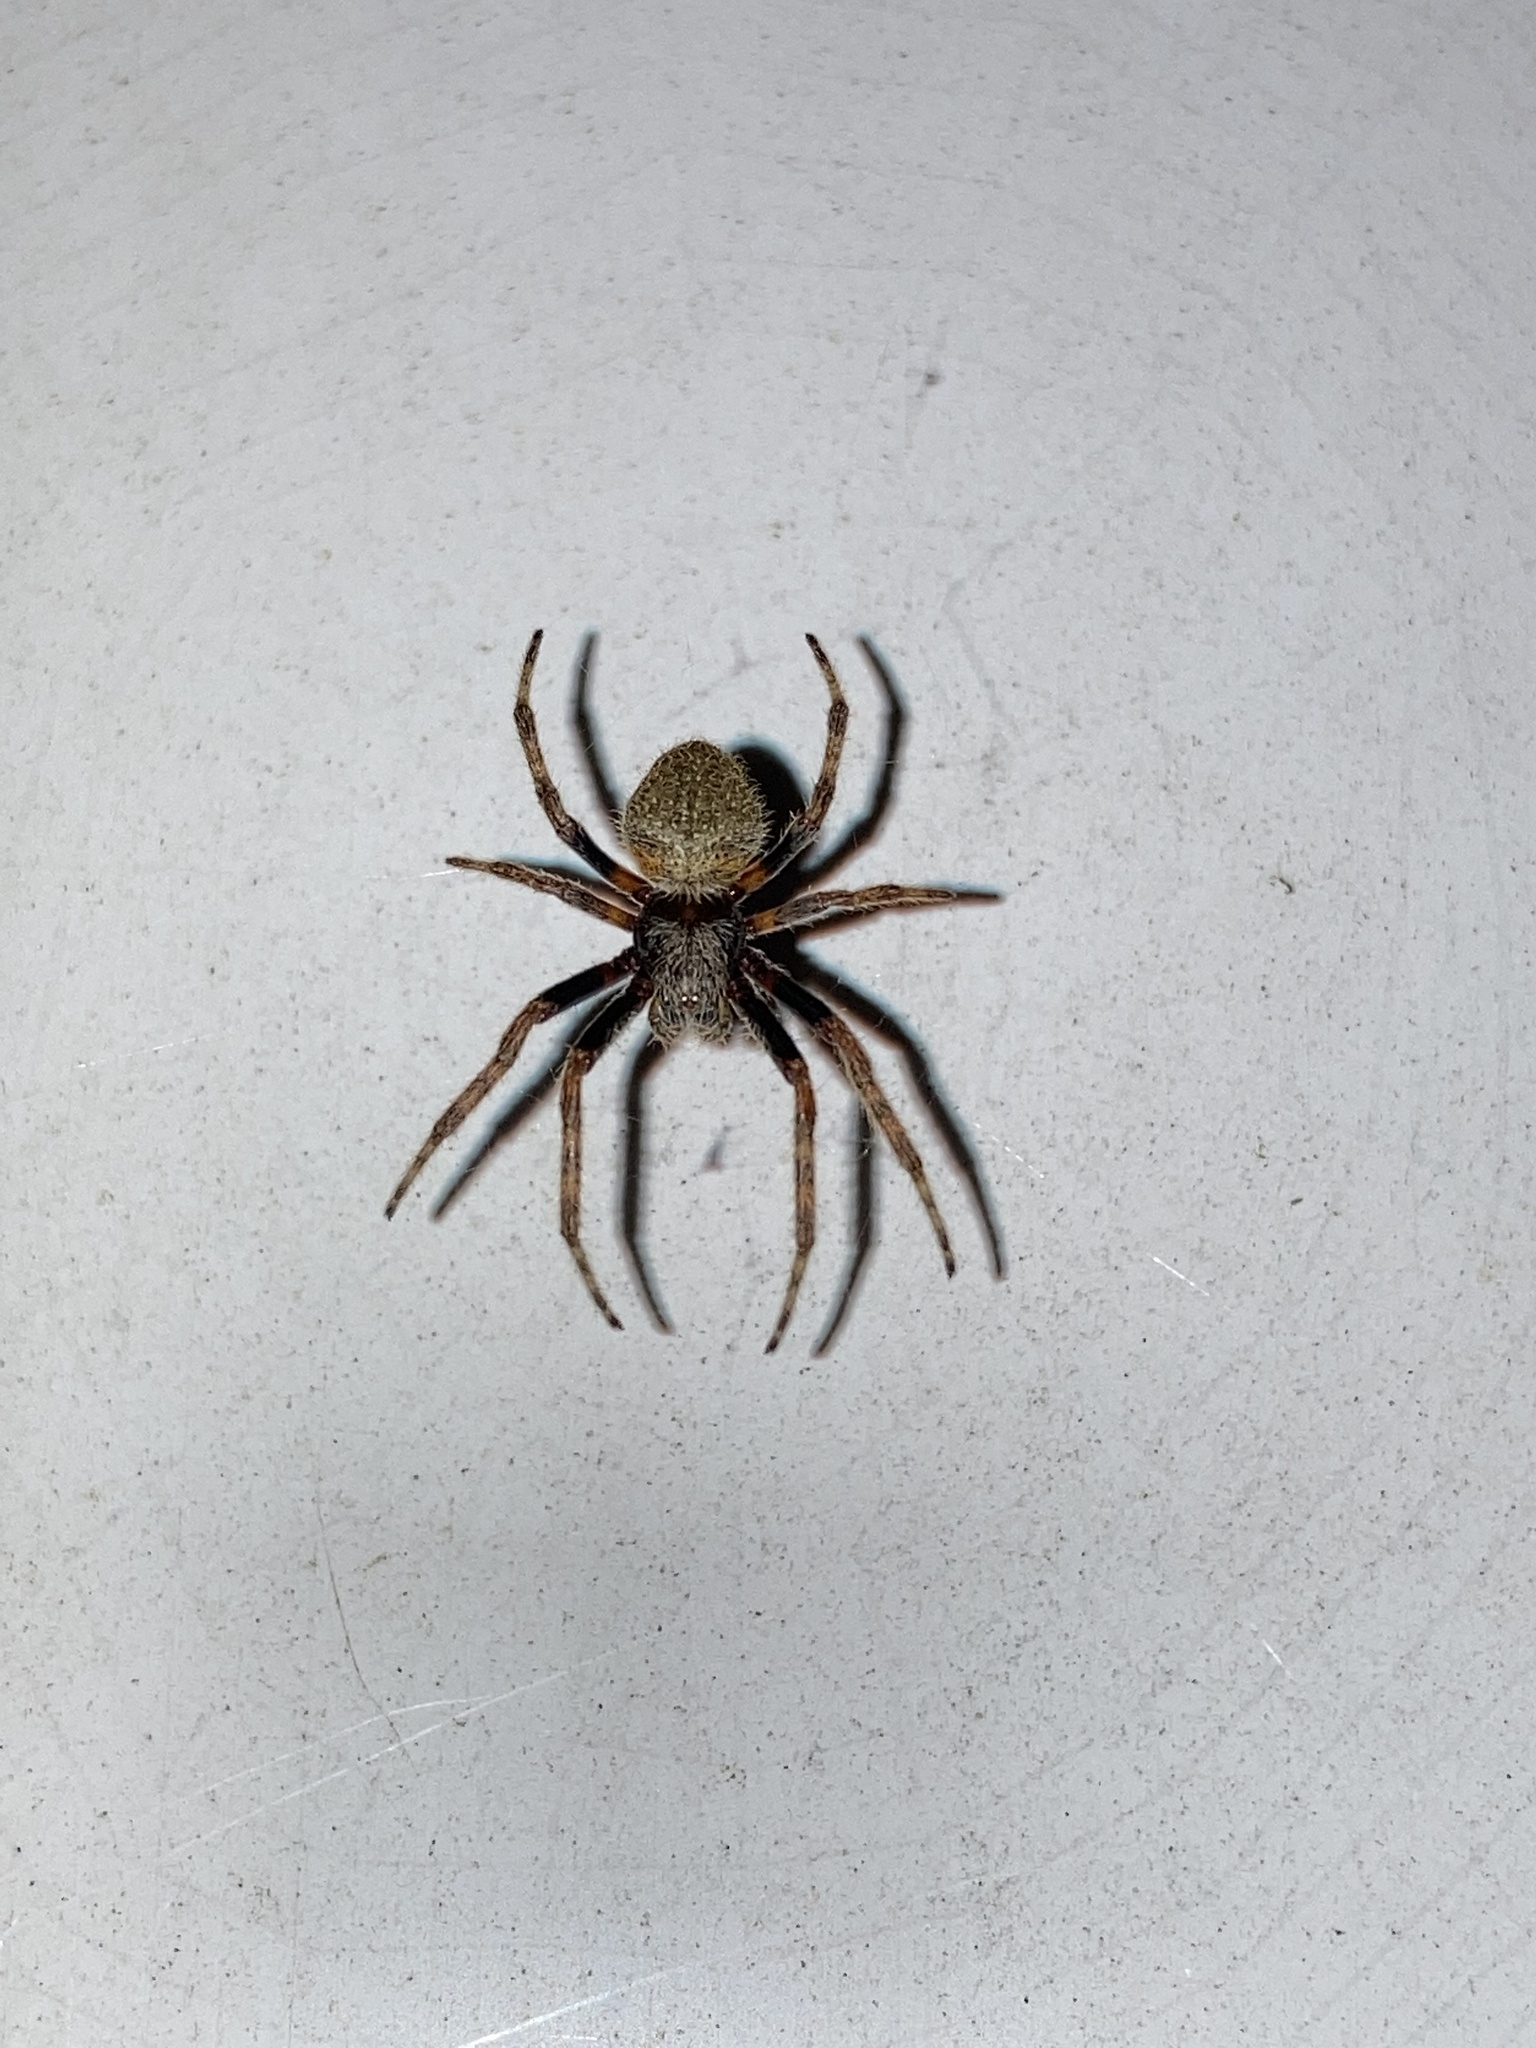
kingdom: Animalia
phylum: Arthropoda
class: Arachnida
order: Araneae
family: Araneidae
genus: Eriophora
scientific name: Eriophora ravilla
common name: Orb weavers
